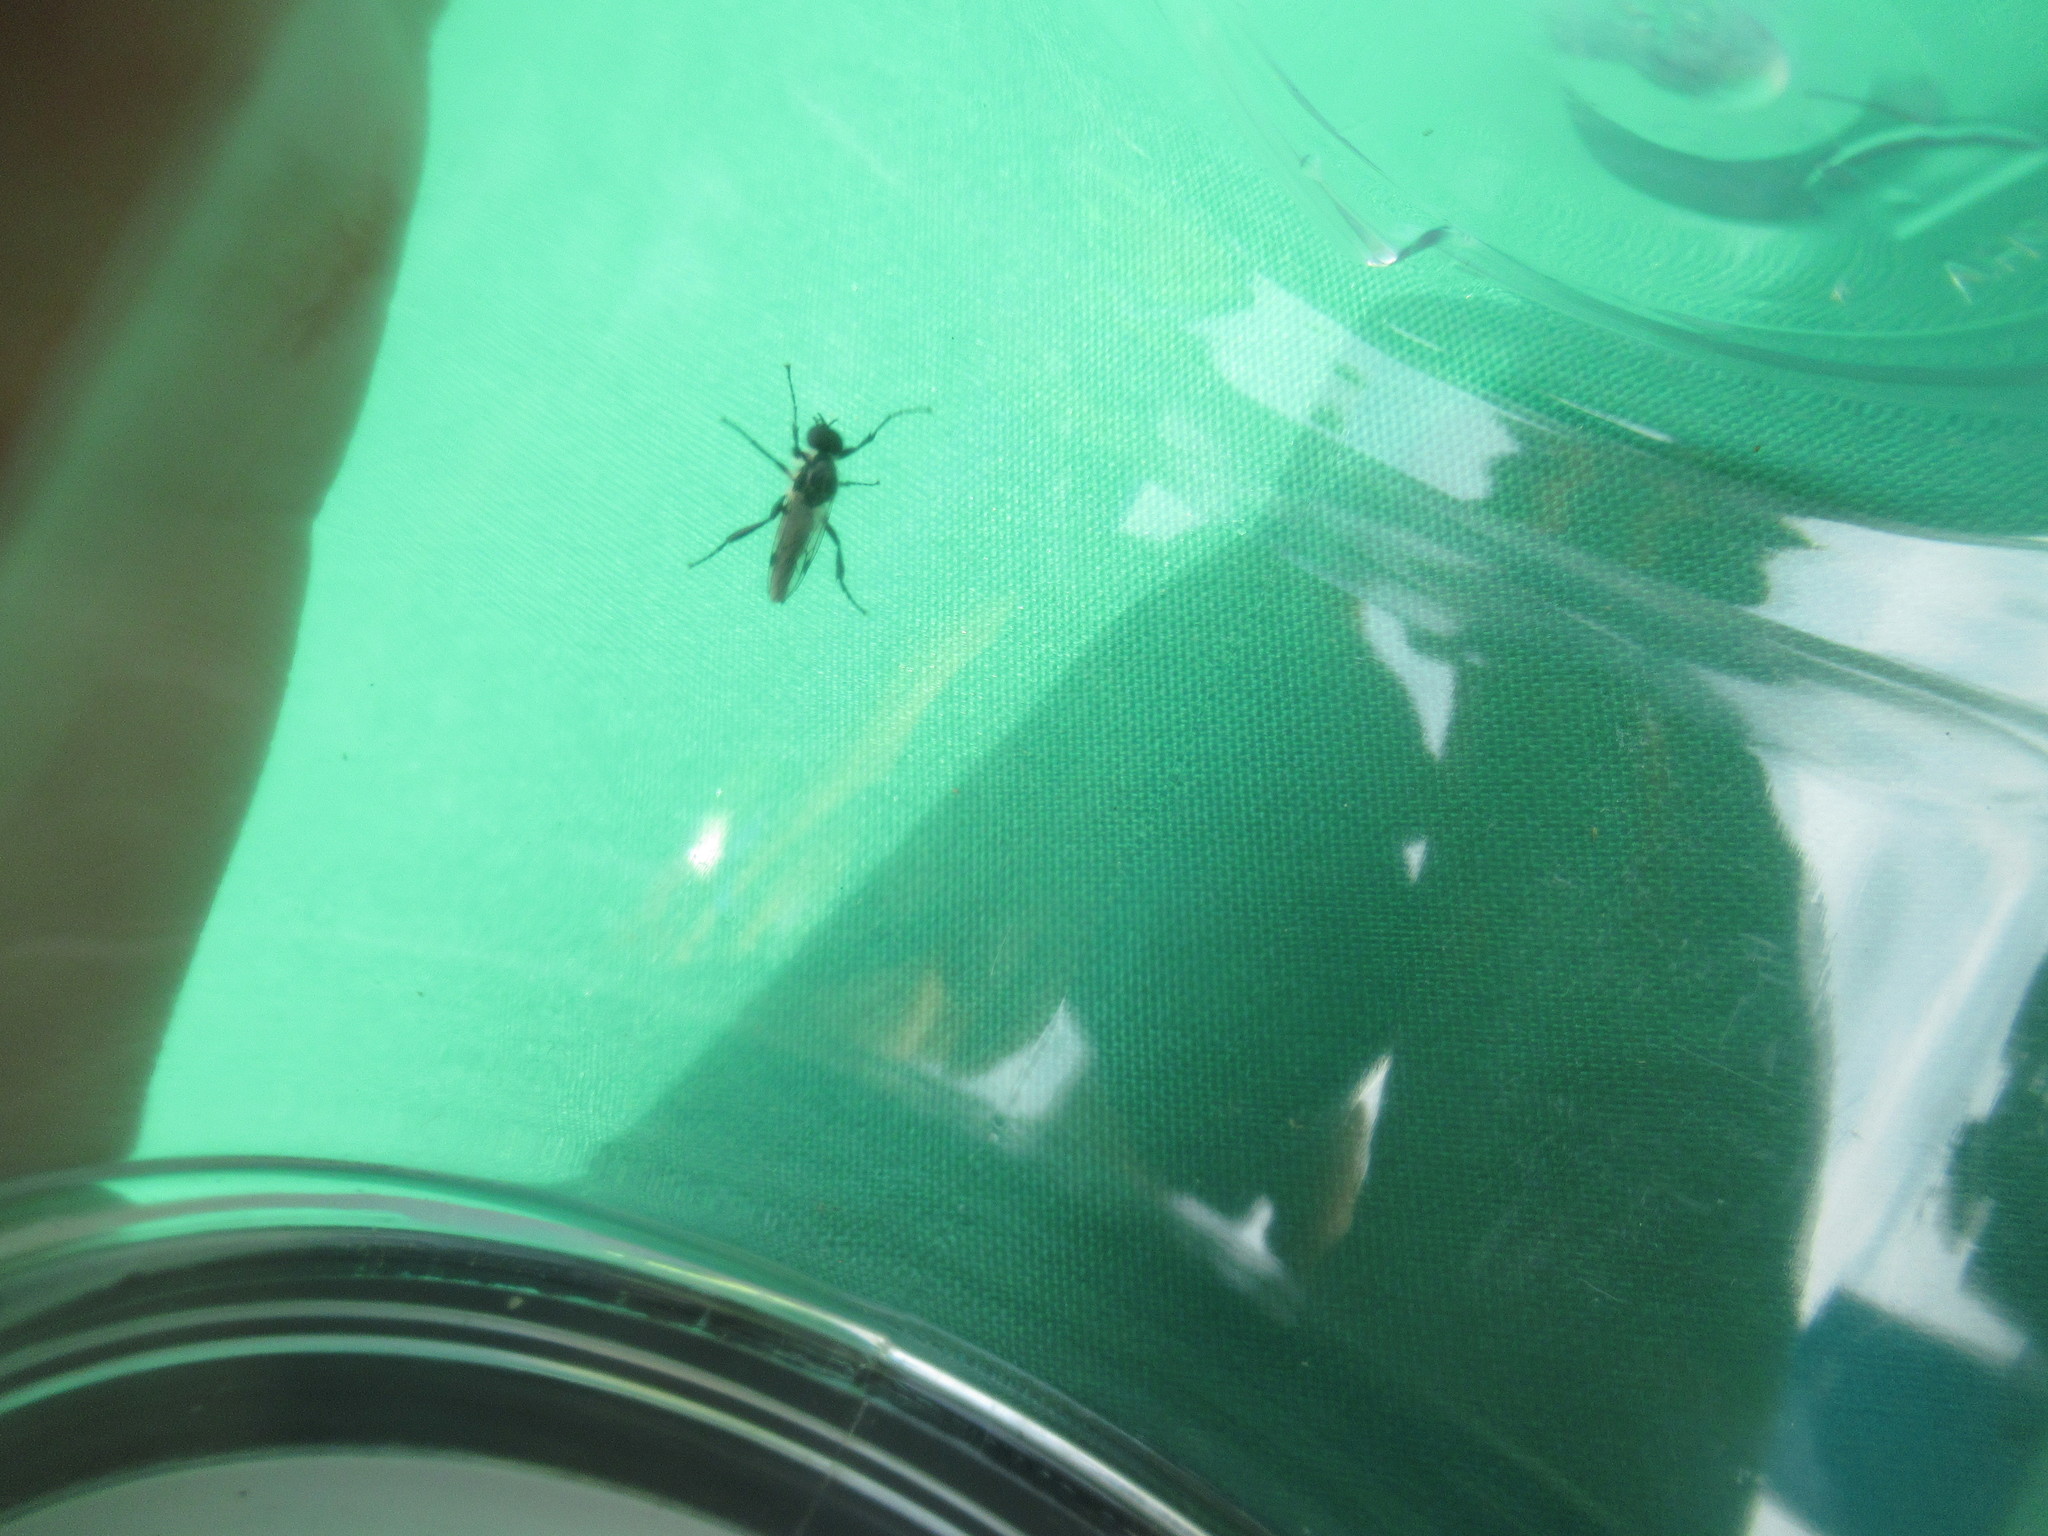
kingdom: Animalia
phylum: Arthropoda
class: Insecta
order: Diptera
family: Bibionidae
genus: Bibio
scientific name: Bibio albipennis
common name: White-winged march fly
